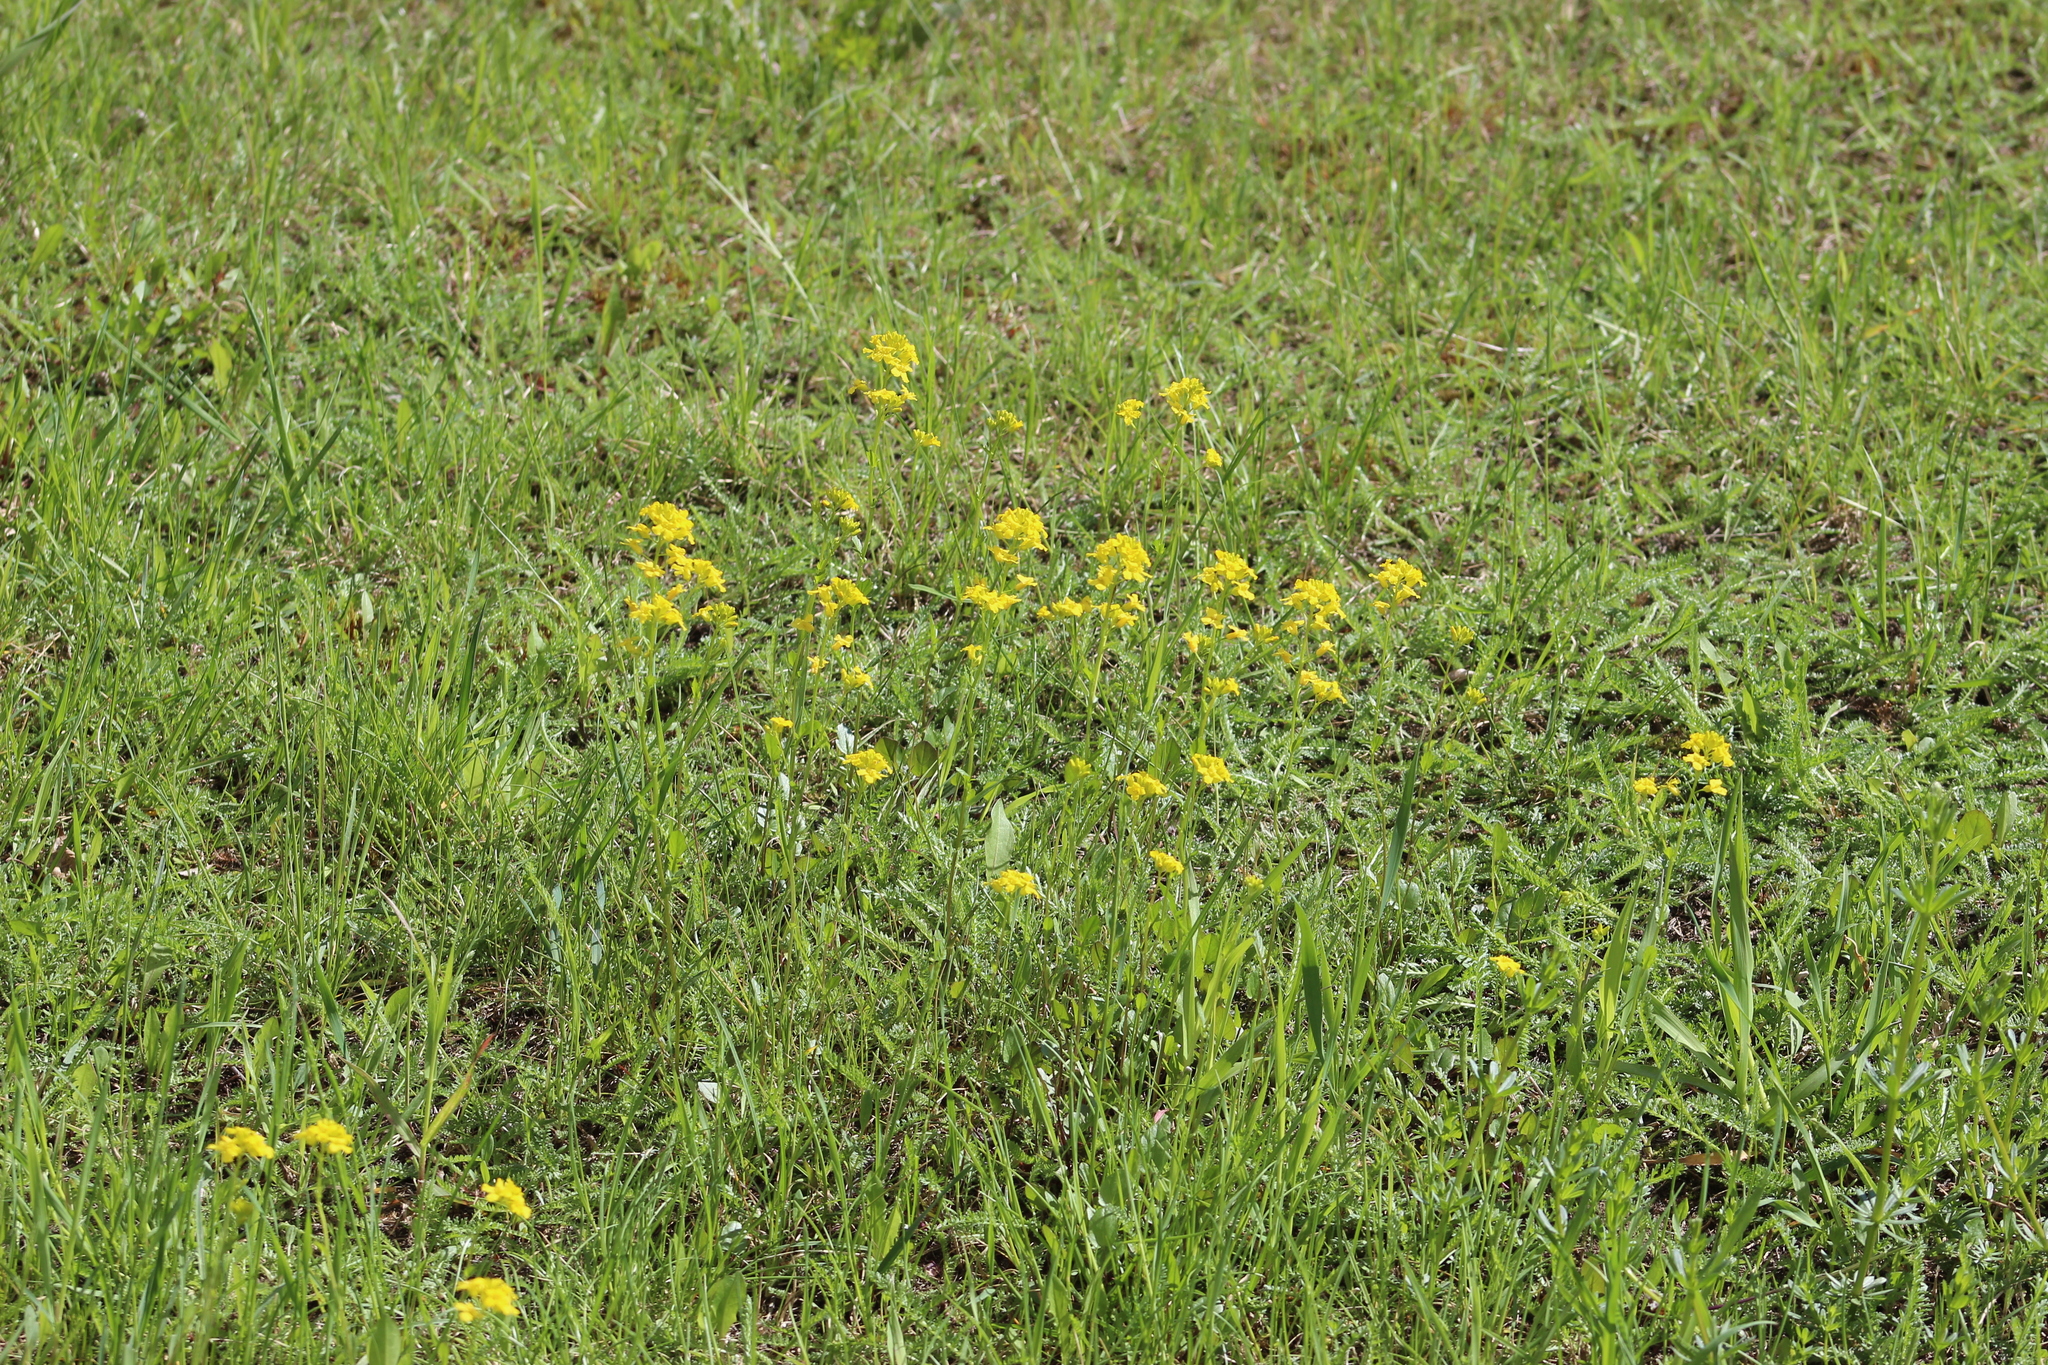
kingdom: Plantae
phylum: Tracheophyta
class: Magnoliopsida
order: Brassicales
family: Brassicaceae
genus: Barbarea
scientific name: Barbarea vulgaris
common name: Cressy-greens
